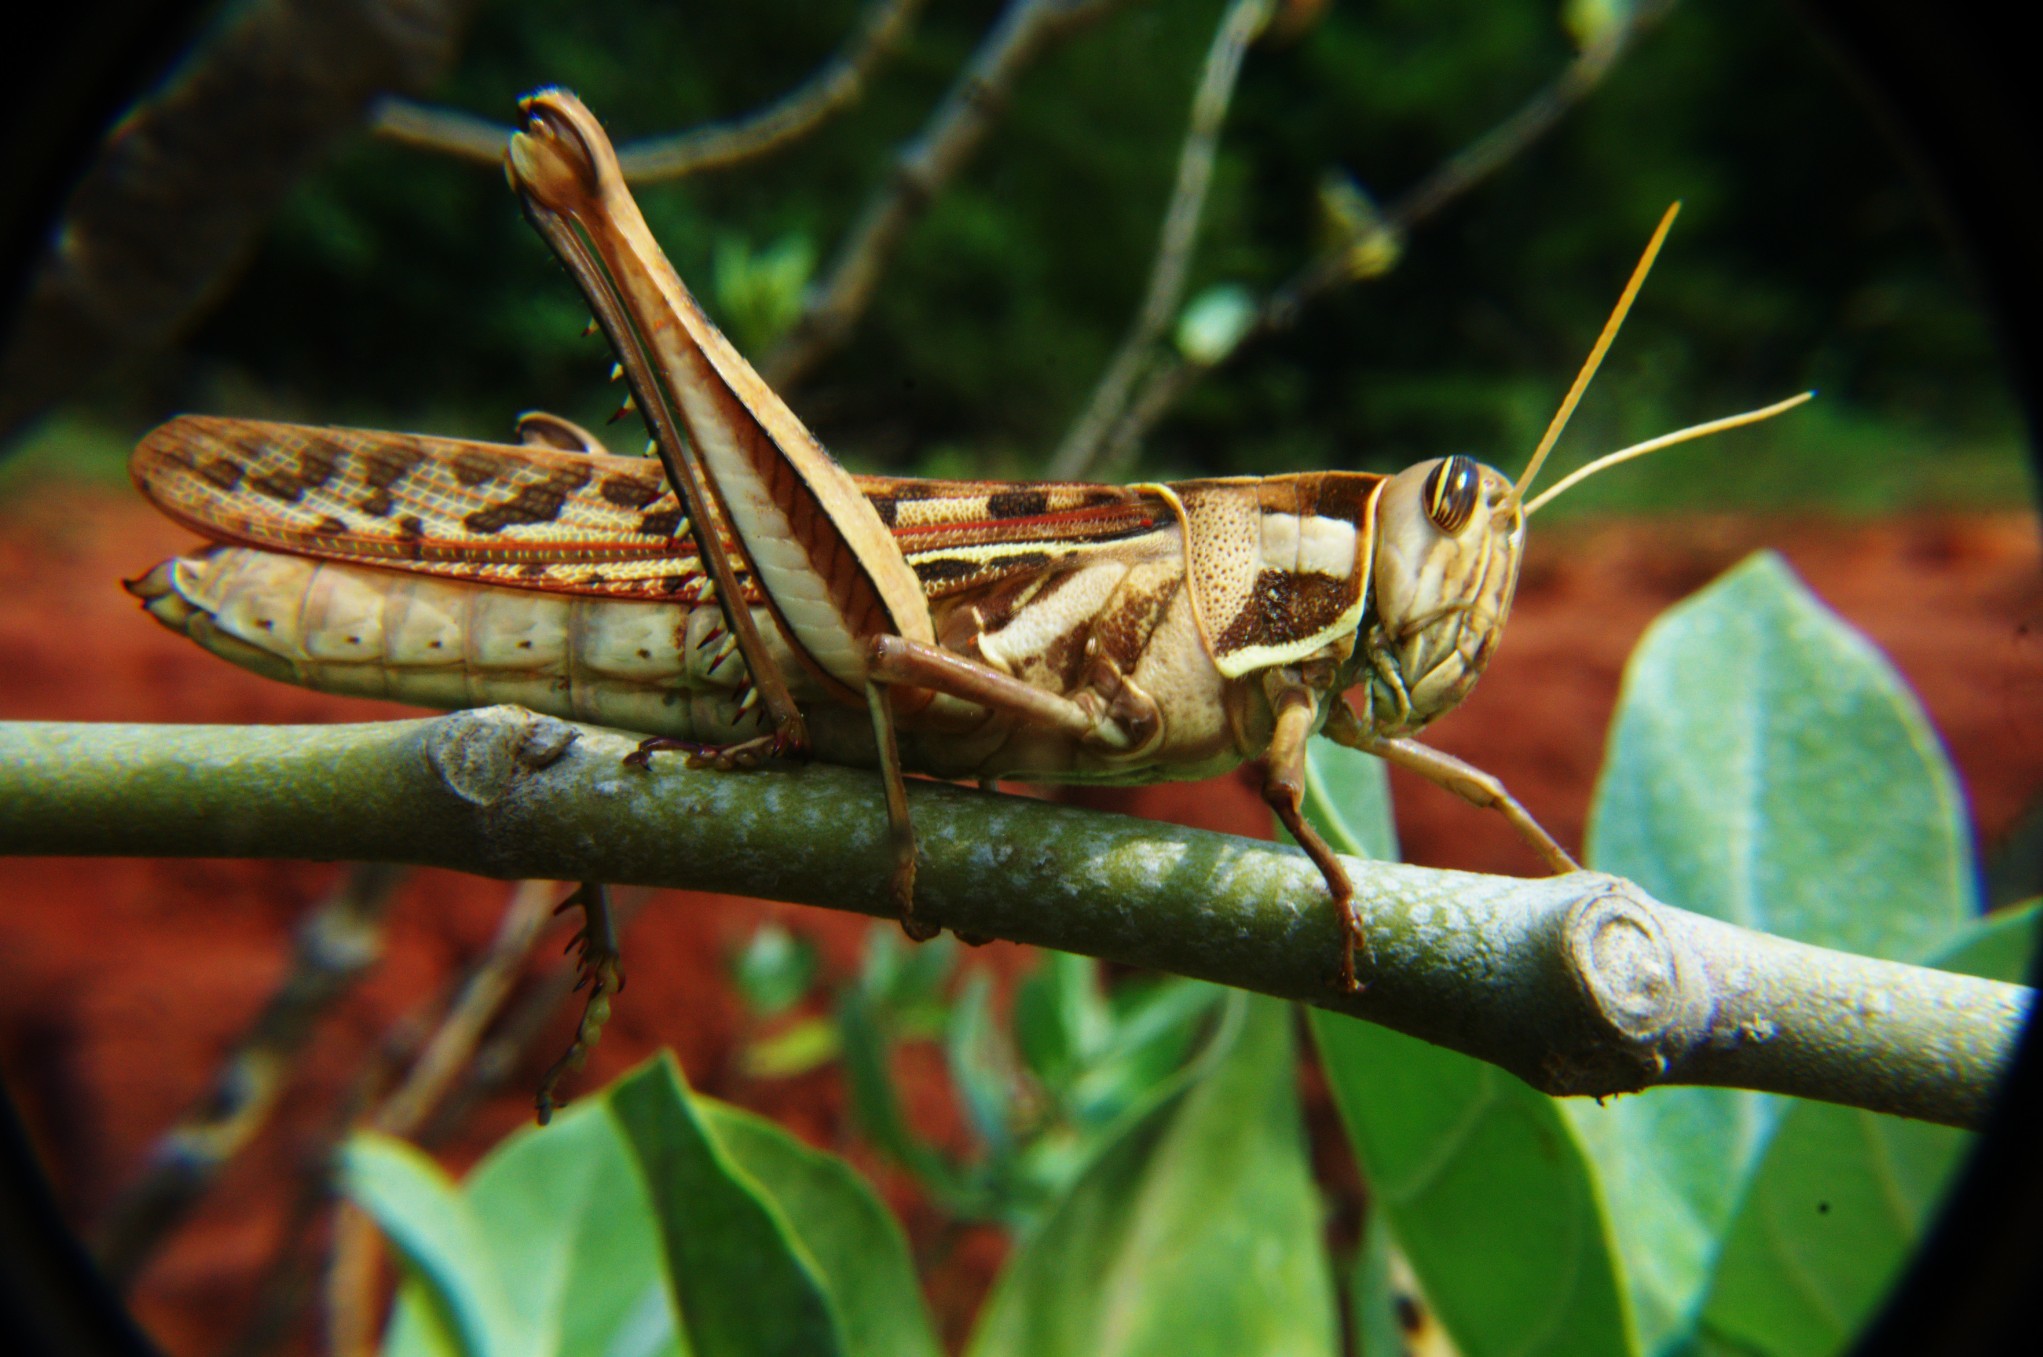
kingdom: Animalia
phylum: Arthropoda
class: Insecta
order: Orthoptera
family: Acrididae
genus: Cyrtacanthacris
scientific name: Cyrtacanthacris tatarica
